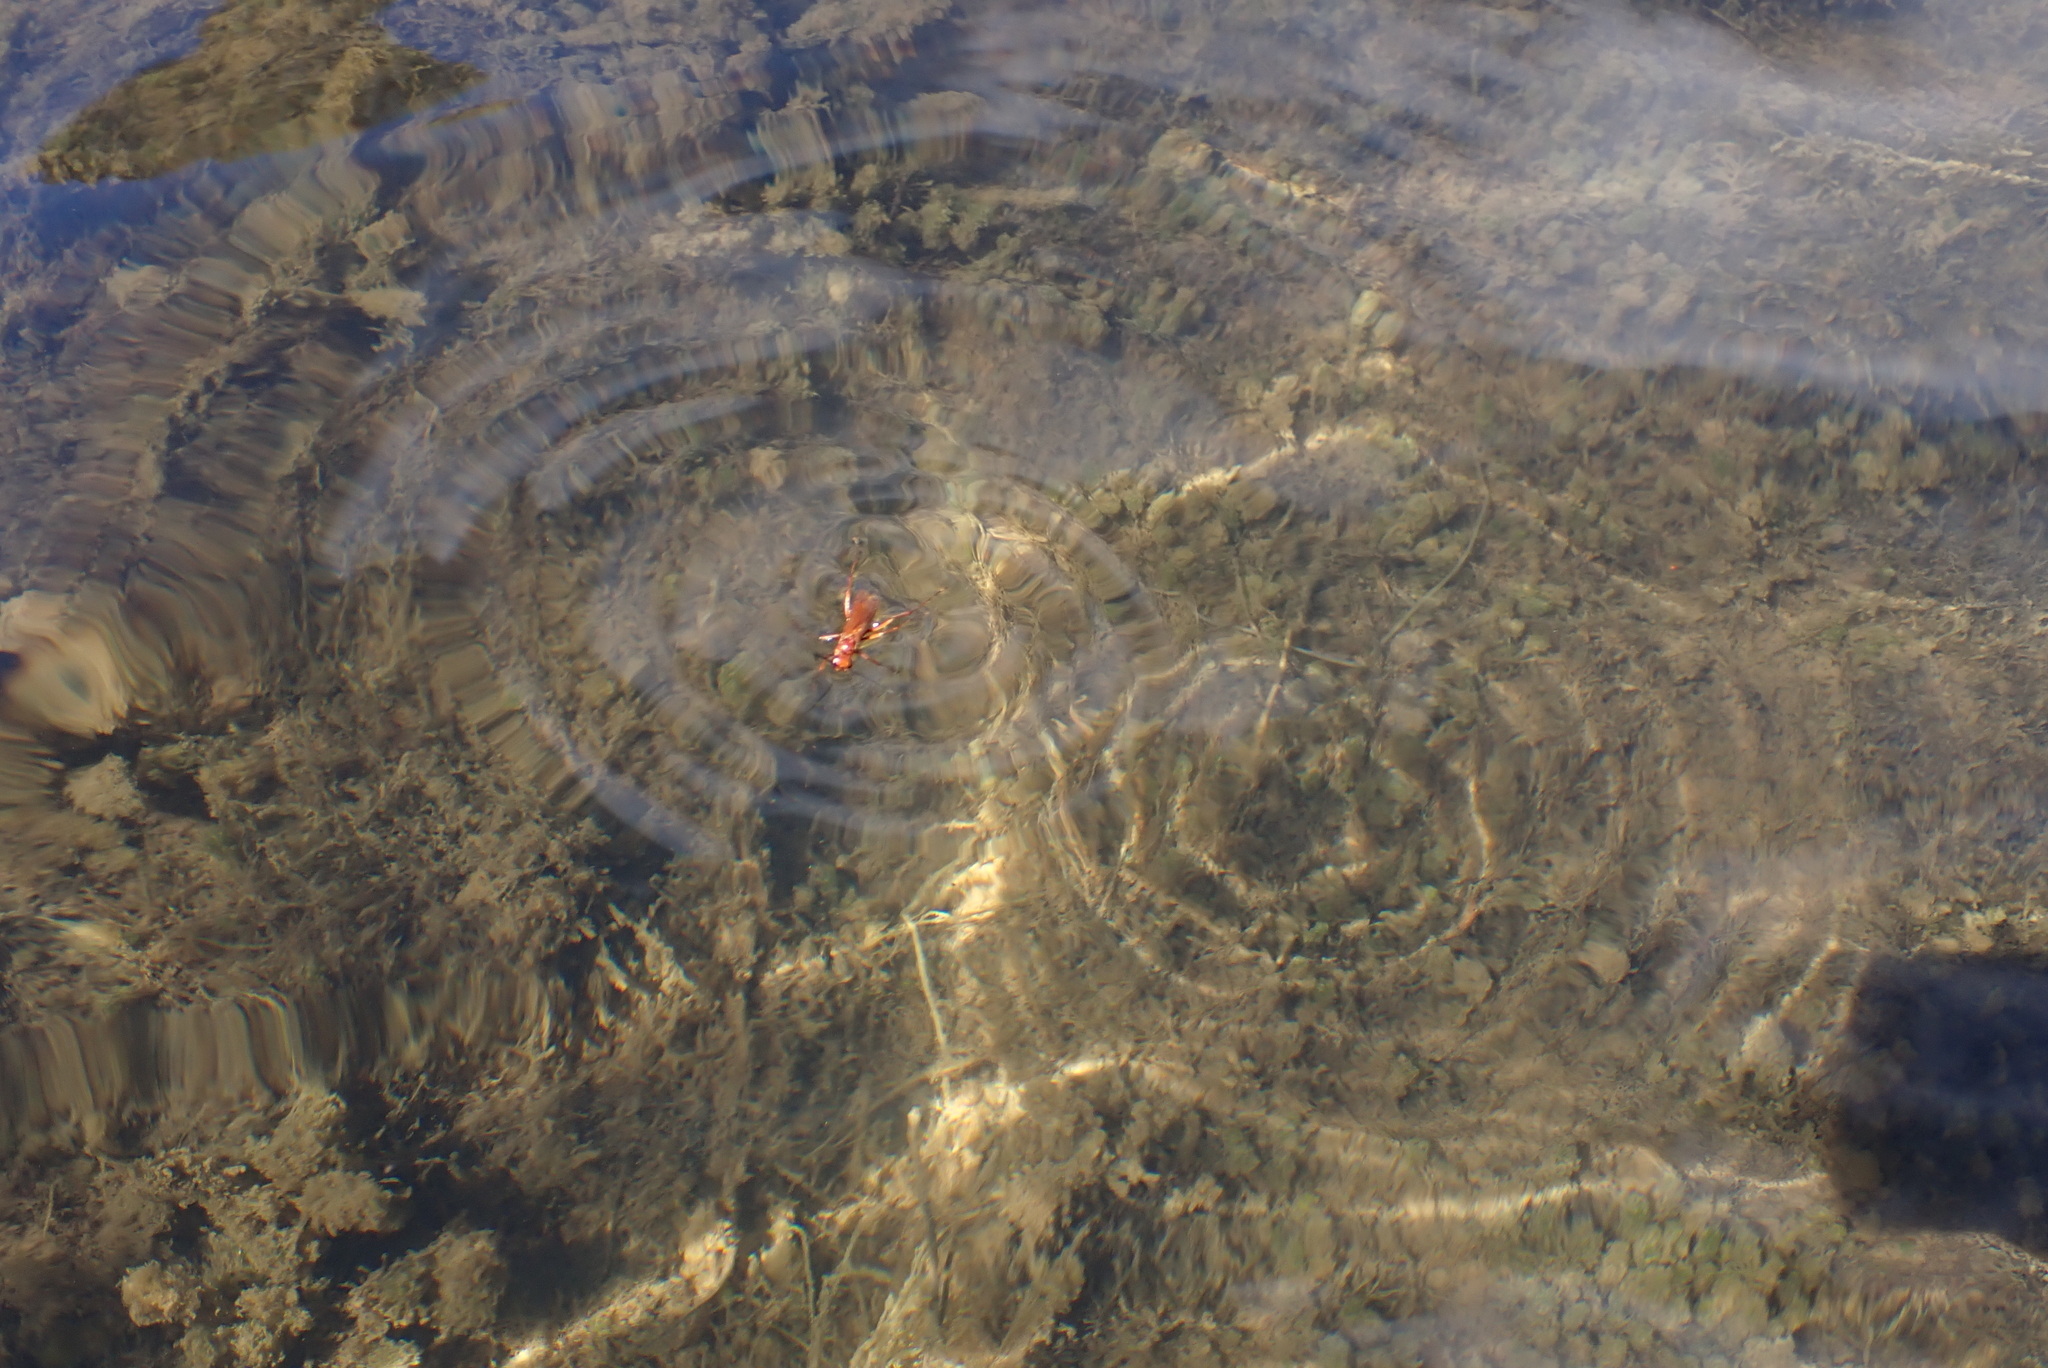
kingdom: Animalia
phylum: Arthropoda
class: Insecta
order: Hymenoptera
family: Pompilidae
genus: Sphictostethus
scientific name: Sphictostethus nitidus
